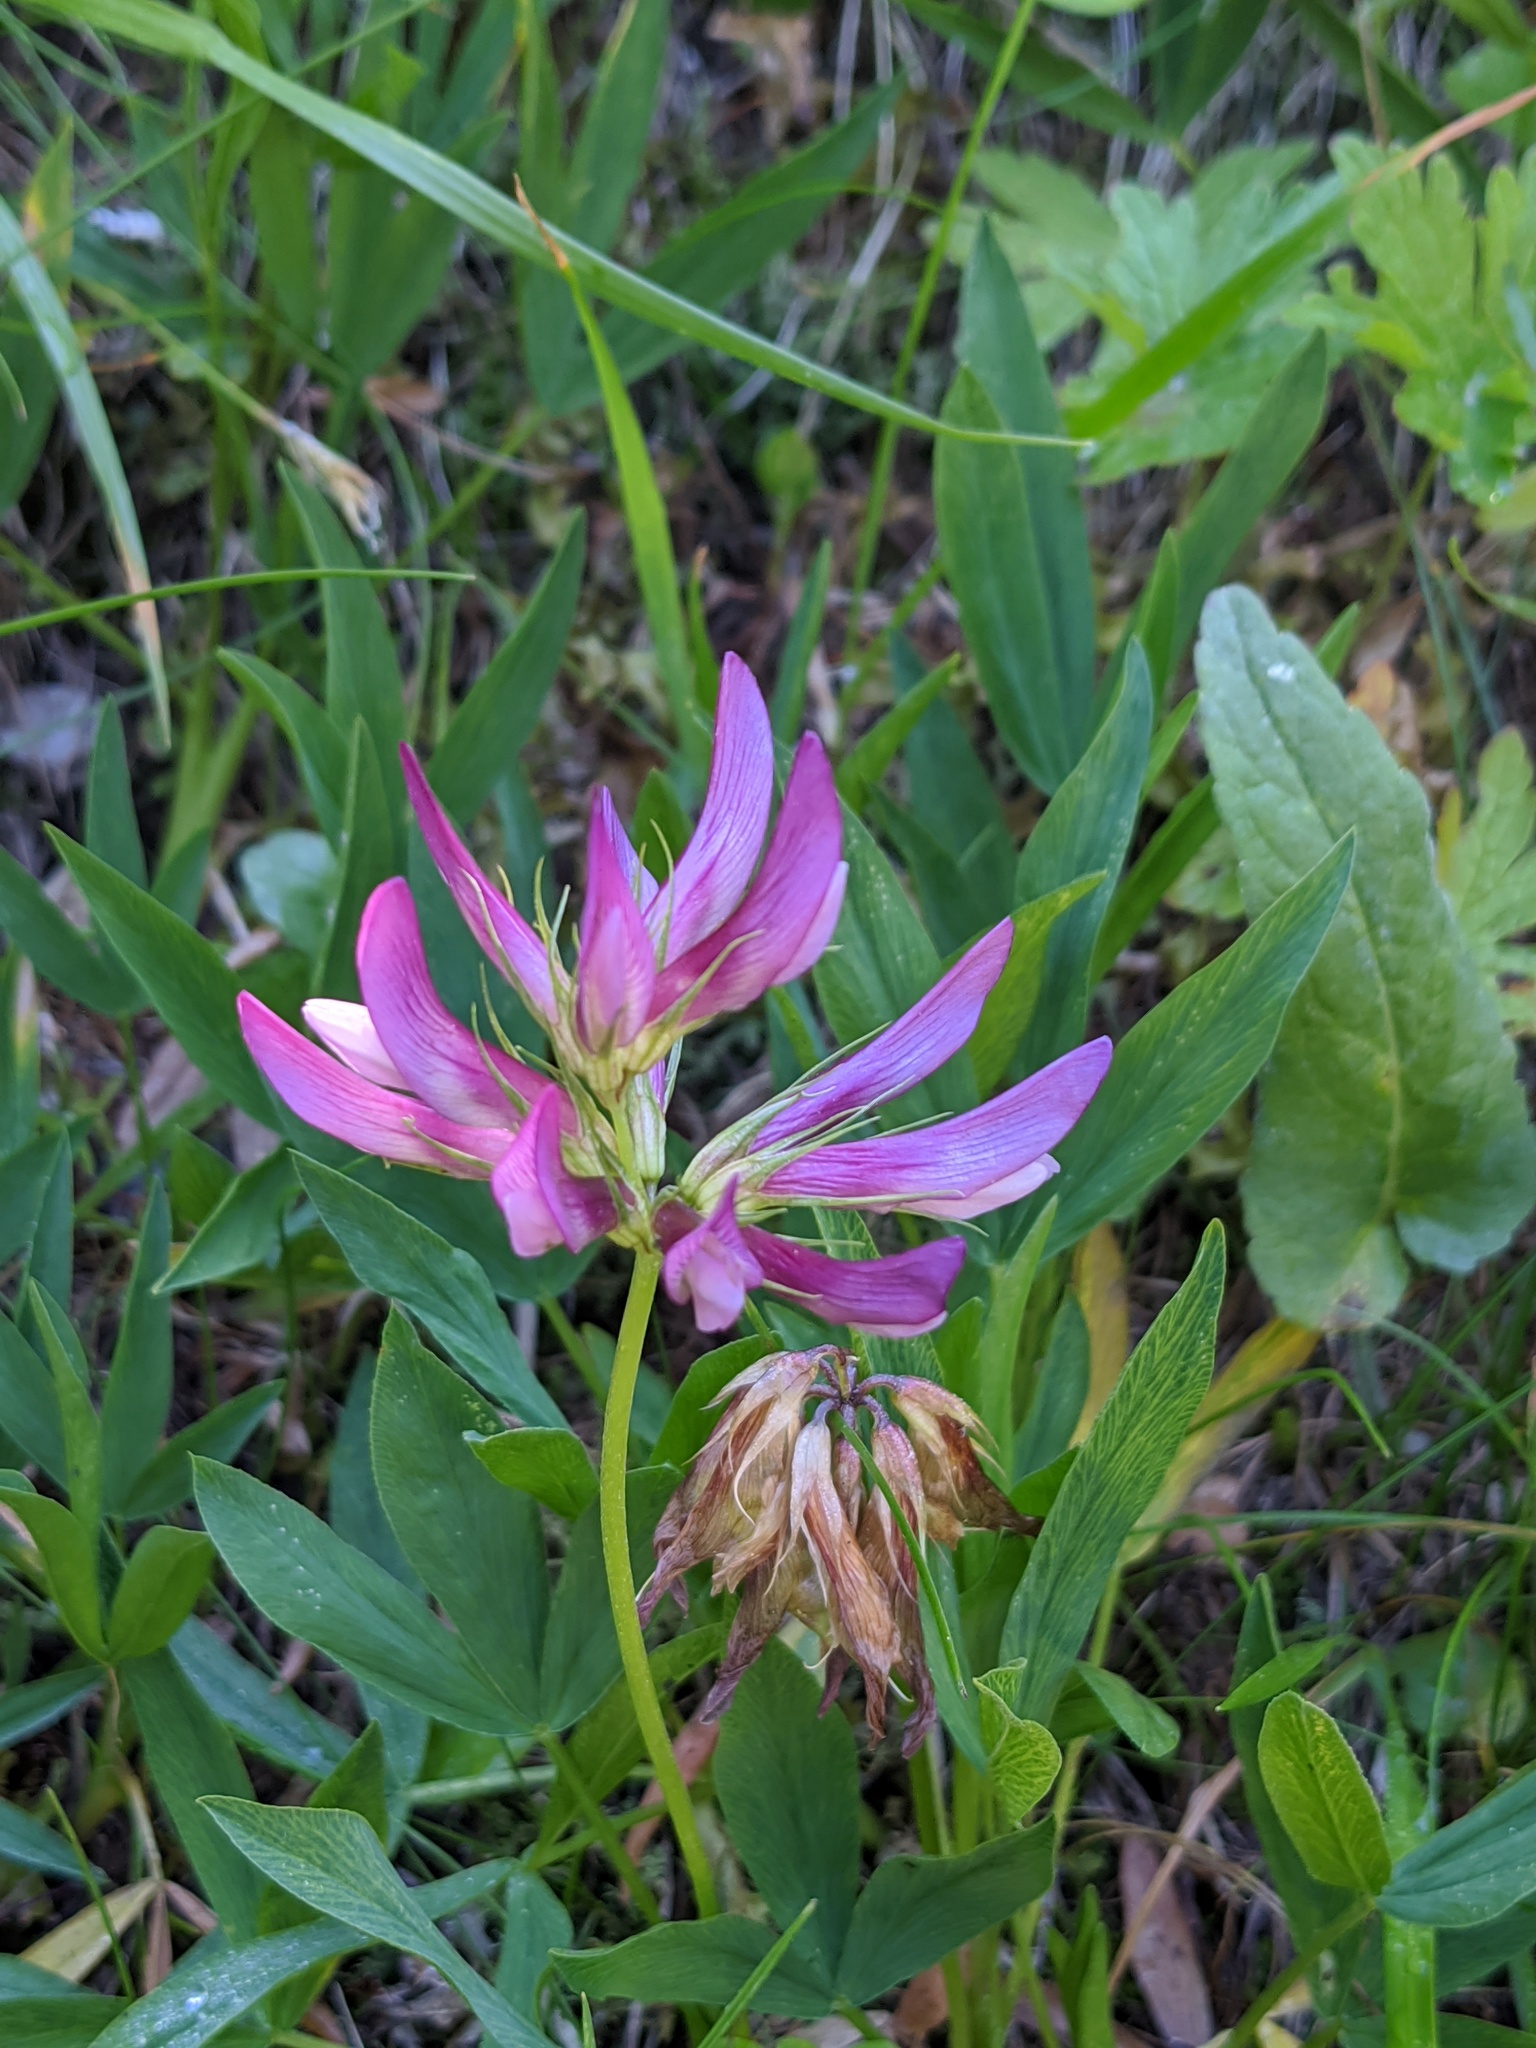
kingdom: Plantae
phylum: Tracheophyta
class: Magnoliopsida
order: Fabales
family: Fabaceae
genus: Trifolium
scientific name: Trifolium alpinum
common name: Alpine clover
